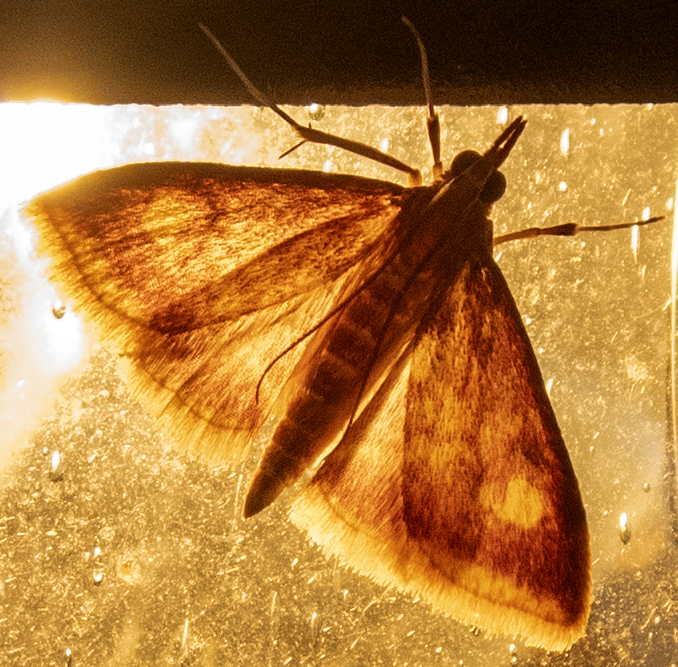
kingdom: Animalia
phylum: Arthropoda
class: Insecta
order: Lepidoptera
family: Crambidae
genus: Pyrausta
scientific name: Pyrausta acrionalis
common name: Mint-loving pyrausta moth
